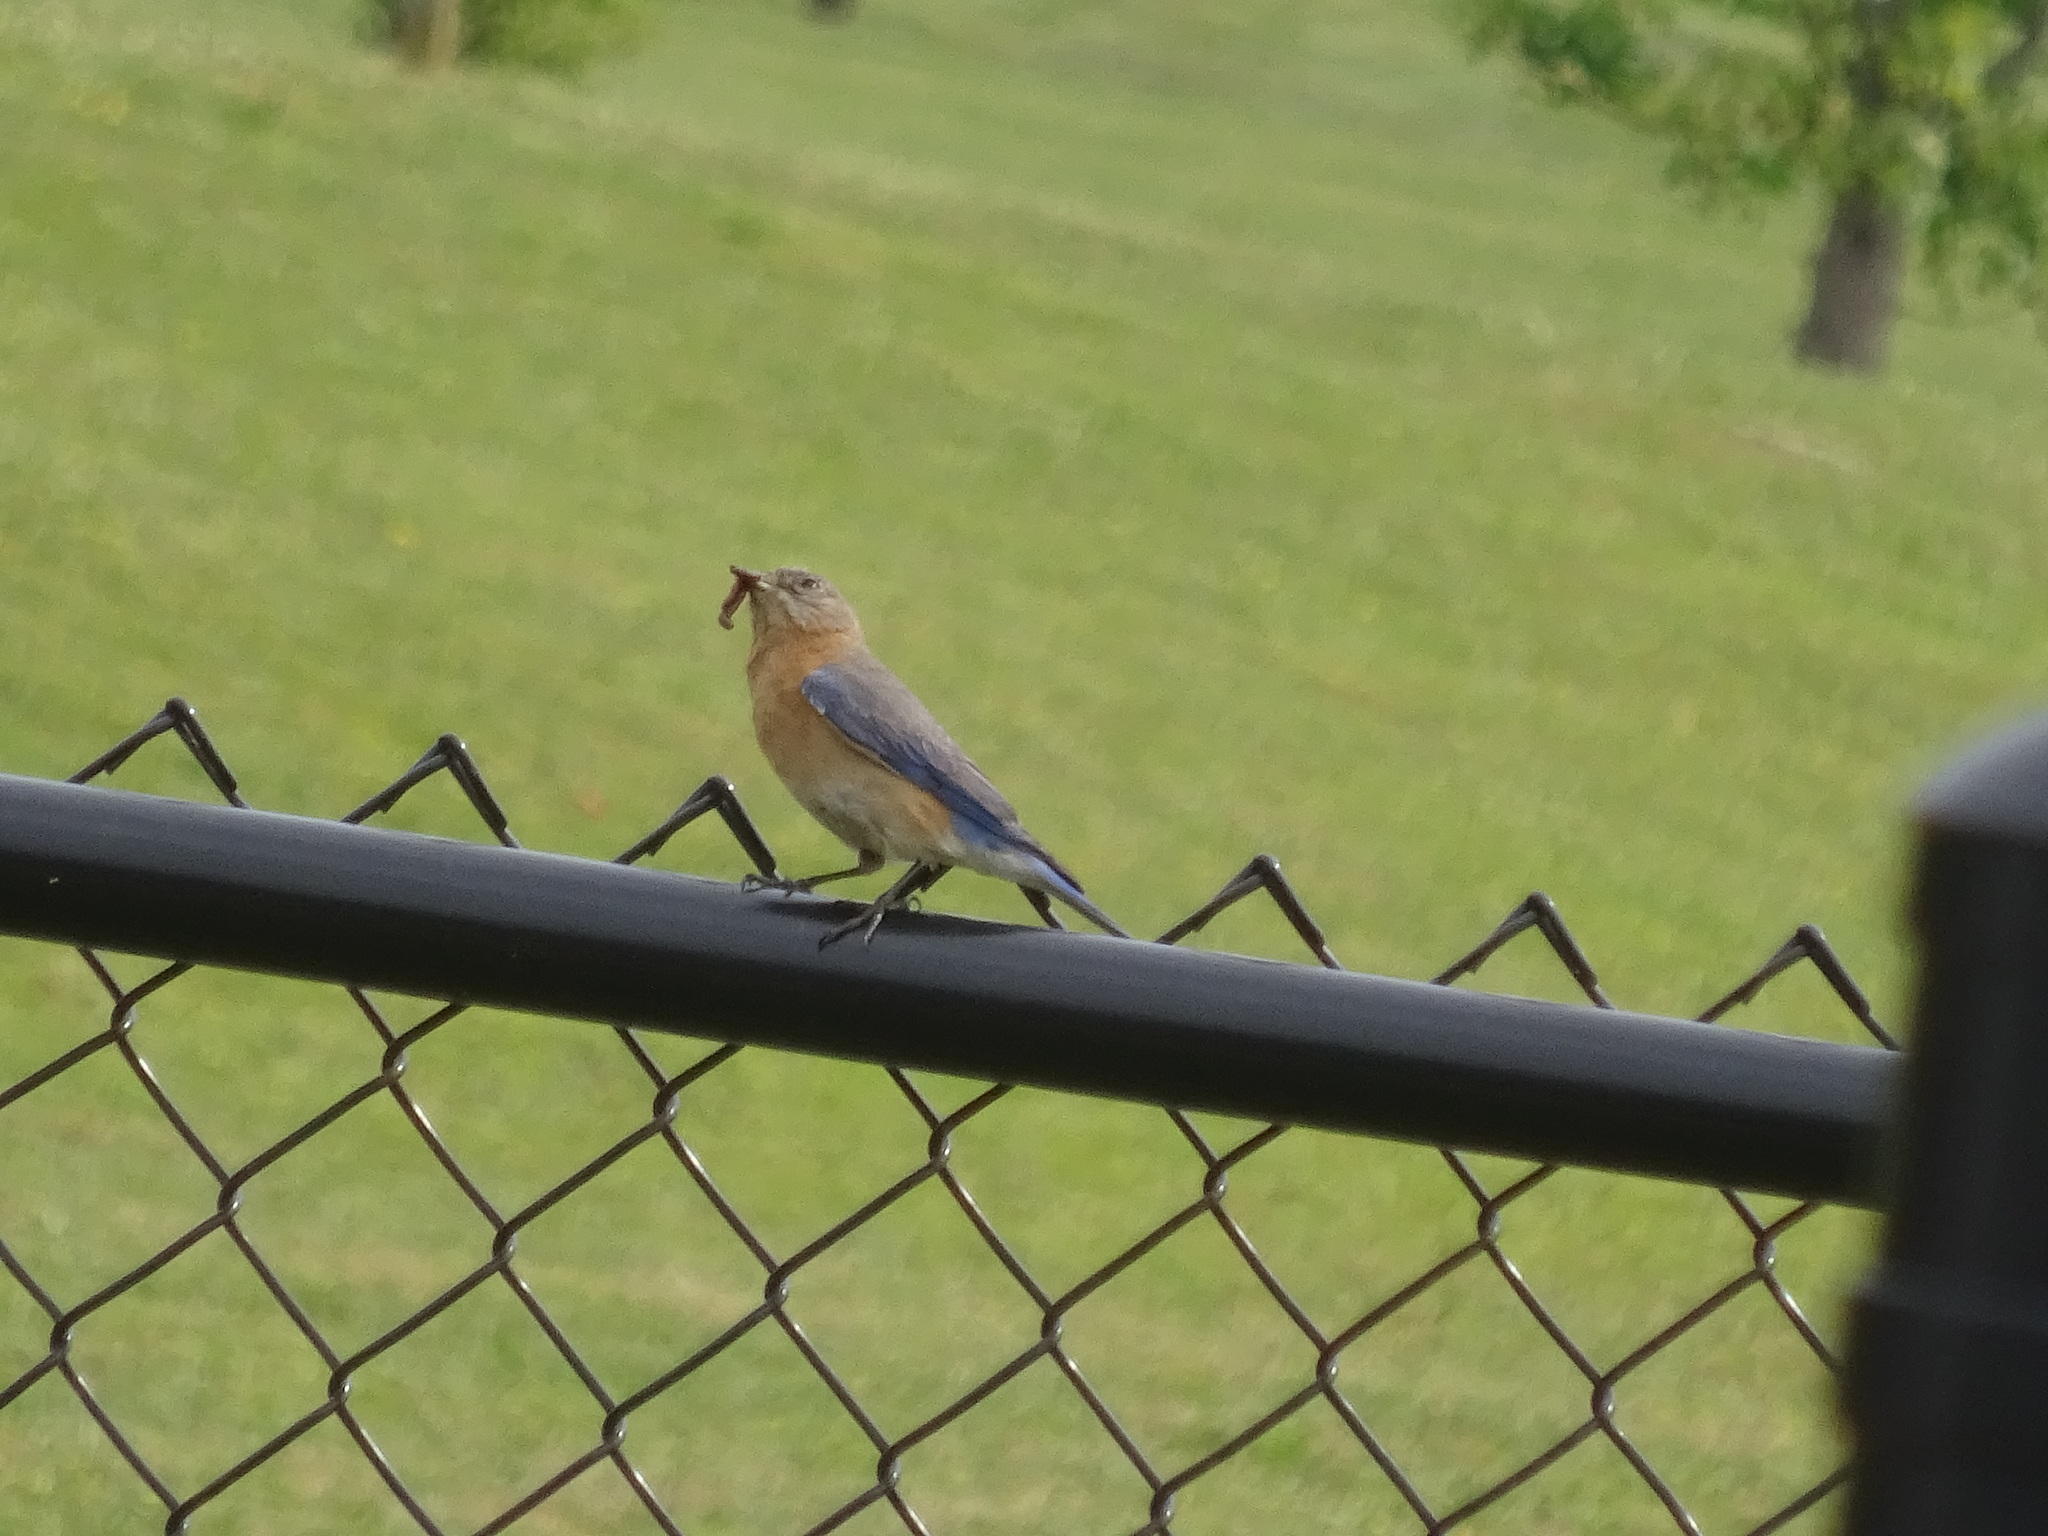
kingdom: Animalia
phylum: Chordata
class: Aves
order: Passeriformes
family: Turdidae
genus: Sialia
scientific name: Sialia sialis
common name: Eastern bluebird
